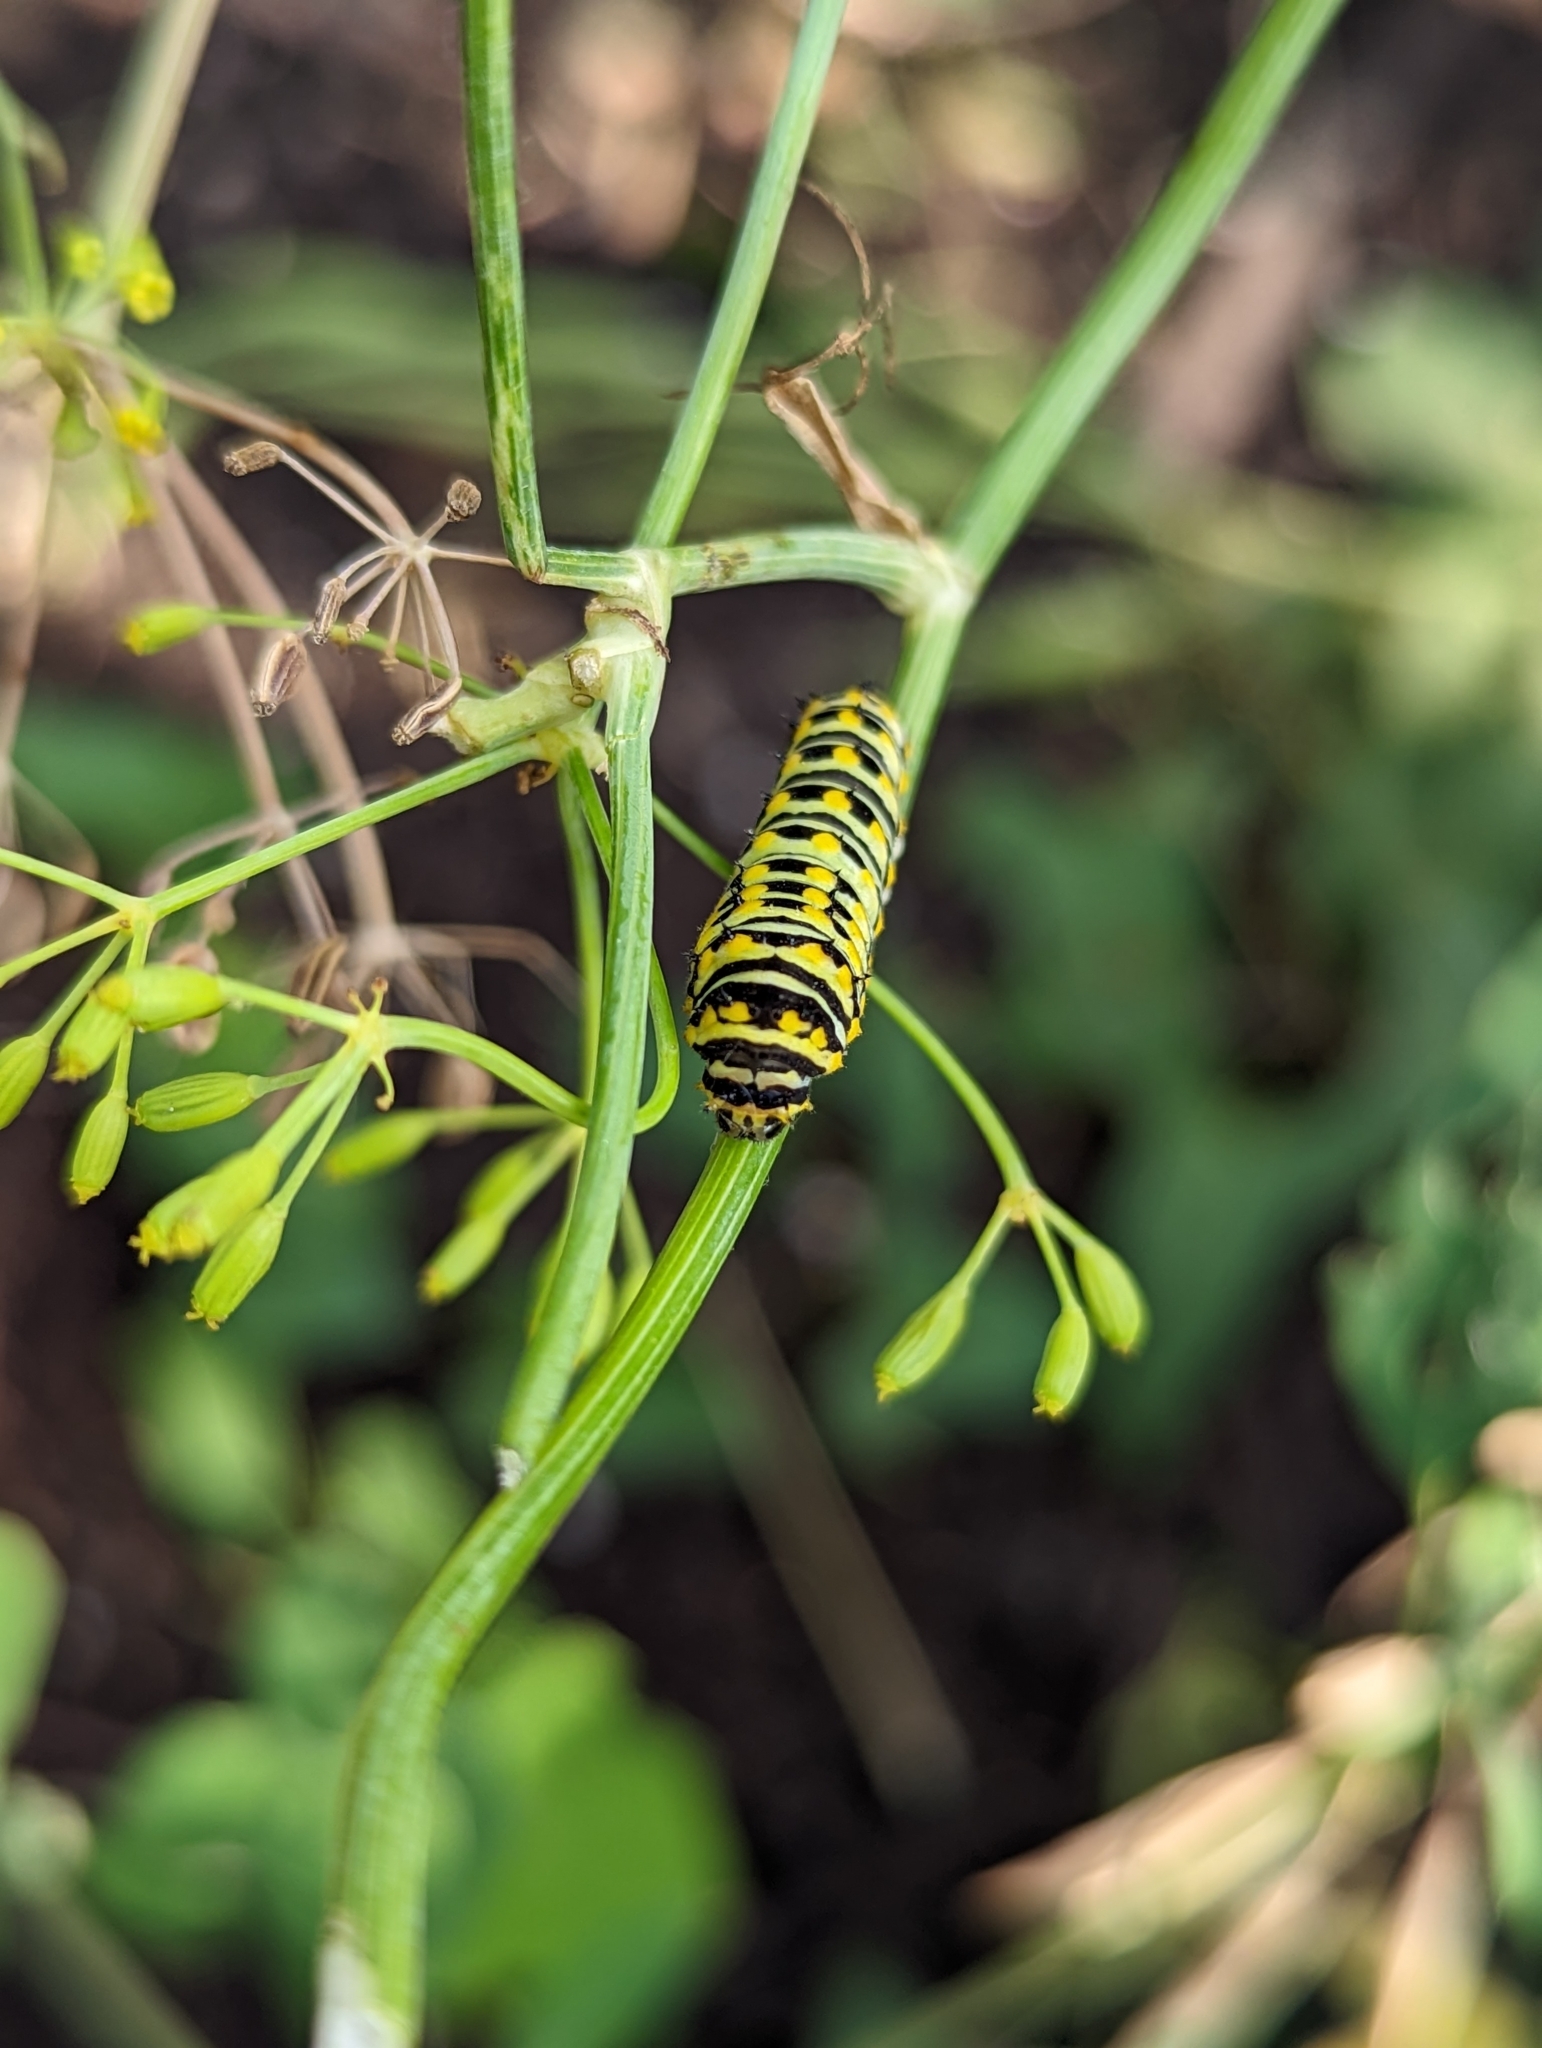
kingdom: Animalia
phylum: Arthropoda
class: Insecta
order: Lepidoptera
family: Papilionidae
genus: Papilio
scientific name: Papilio polyxenes
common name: Black swallowtail
